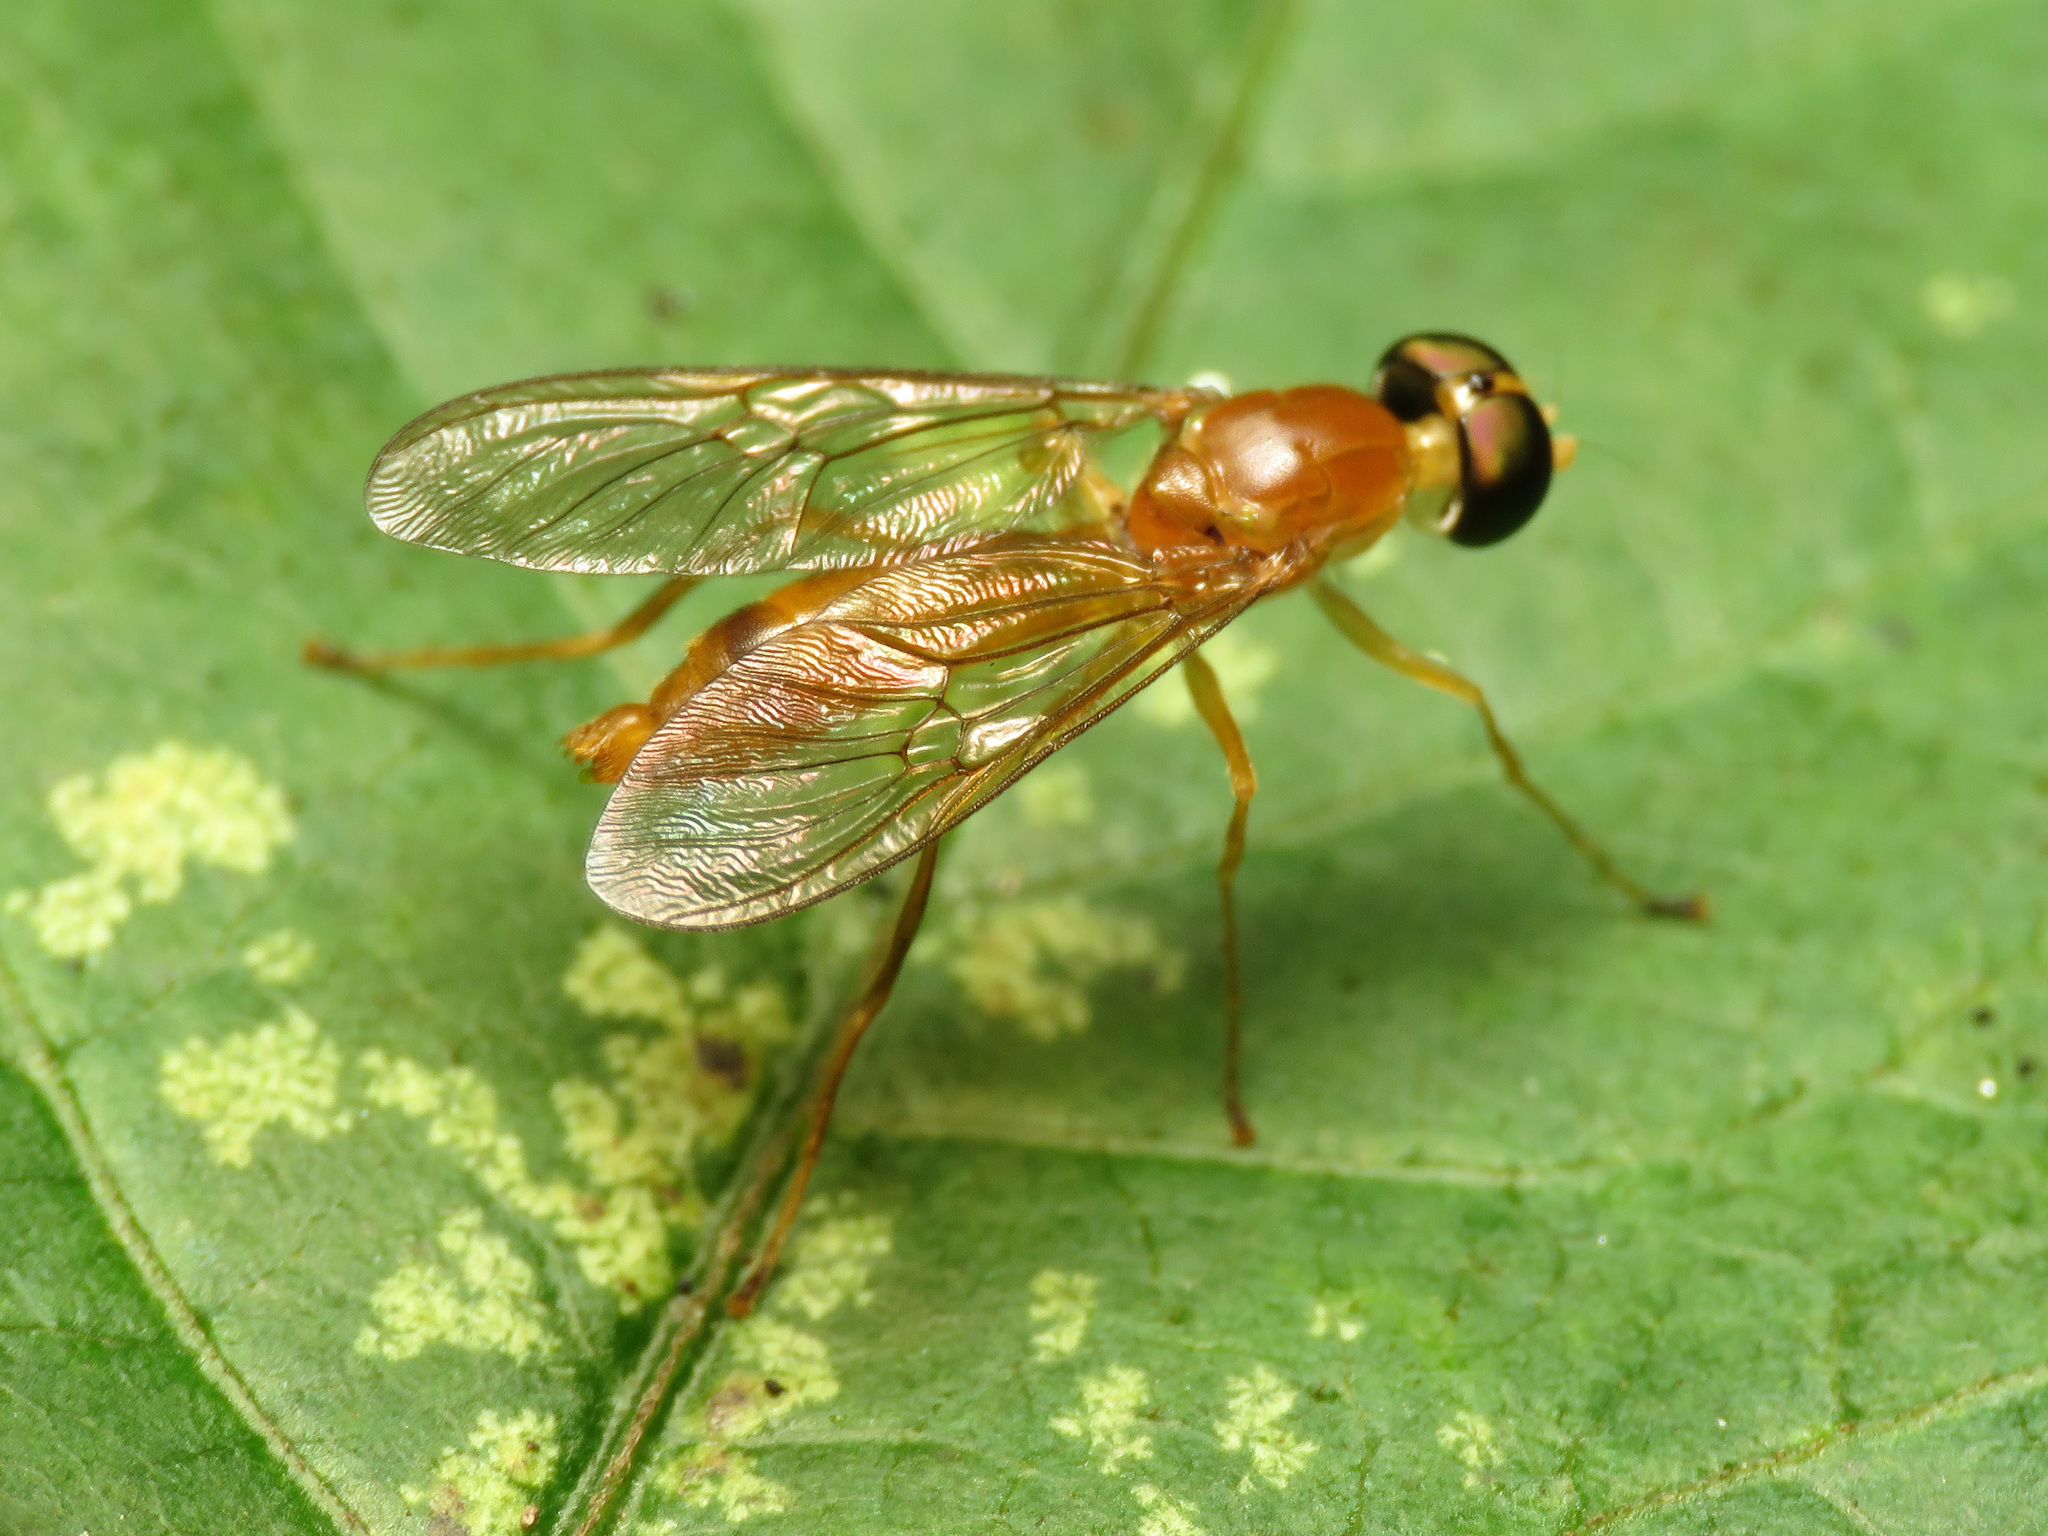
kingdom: Animalia
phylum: Arthropoda
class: Insecta
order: Diptera
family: Stratiomyidae
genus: Ptecticus
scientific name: Ptecticus trivittatus
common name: Compost fly
